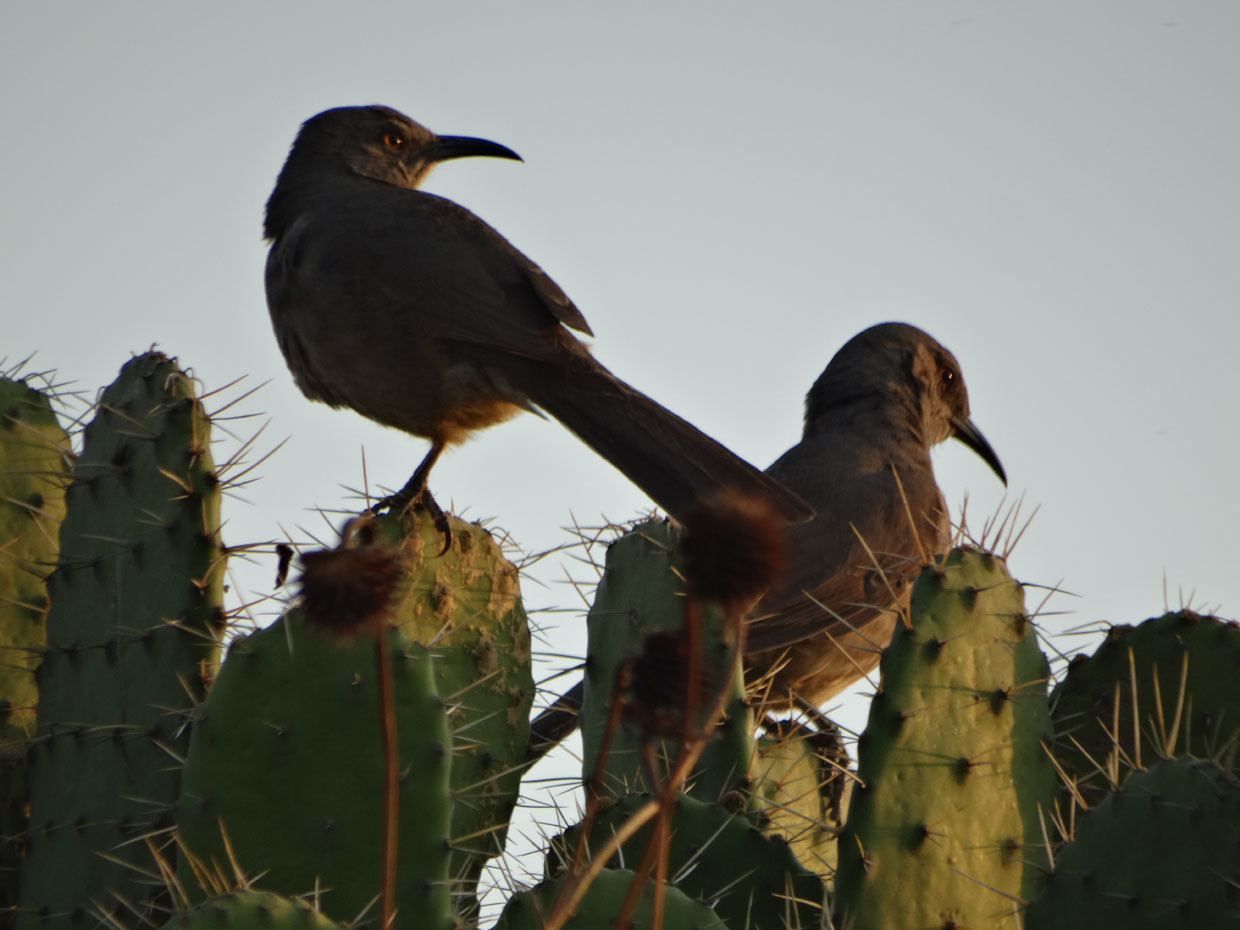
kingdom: Animalia
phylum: Chordata
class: Aves
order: Passeriformes
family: Mimidae
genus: Toxostoma
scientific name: Toxostoma curvirostre
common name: Curve-billed thrasher
